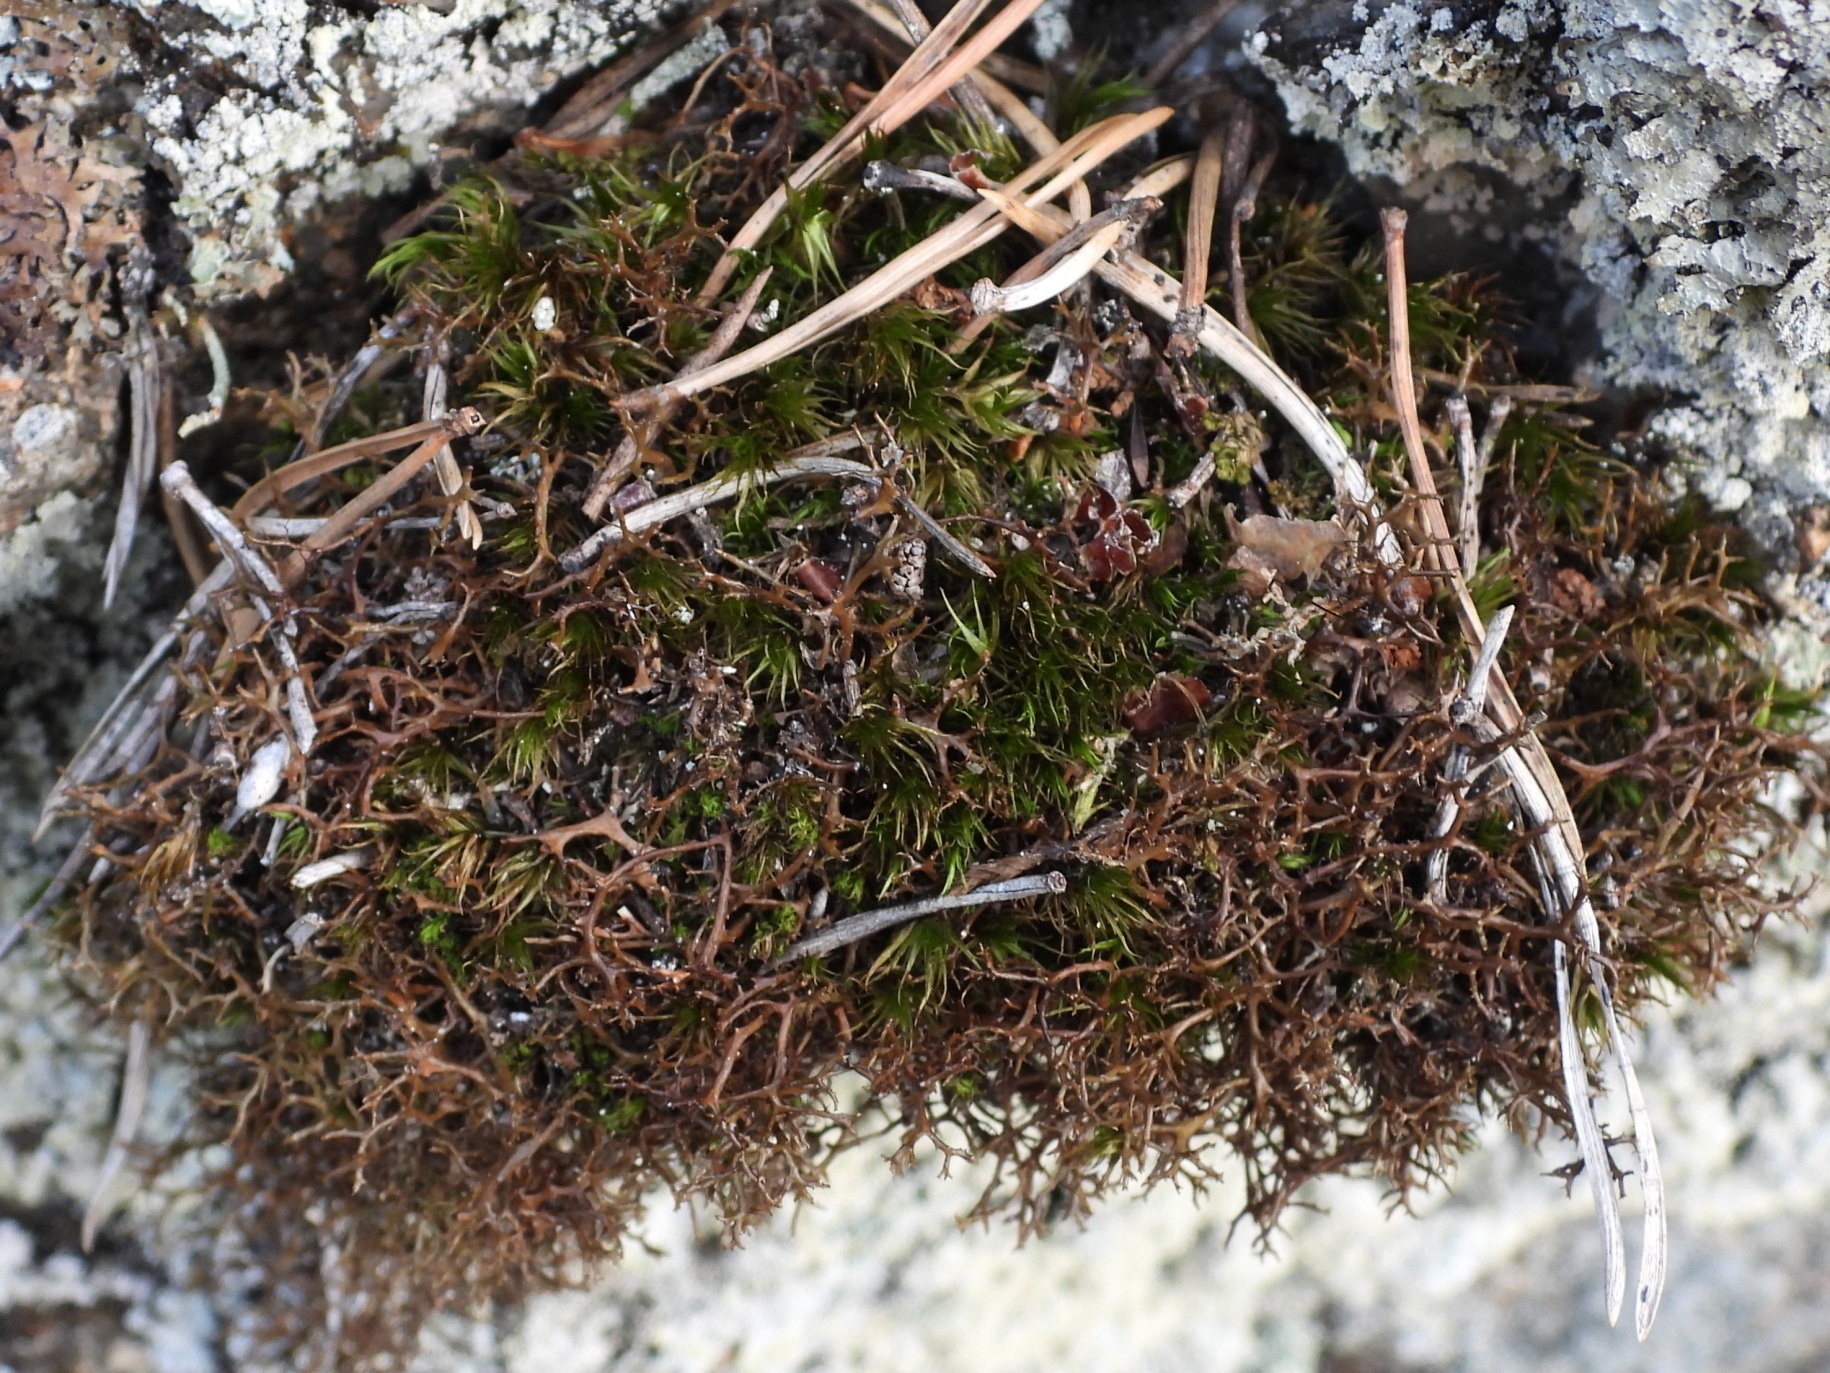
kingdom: Fungi
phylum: Ascomycota
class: Lecanoromycetes
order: Lecanorales
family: Parmeliaceae
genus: Cetraria
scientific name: Cetraria muricata
